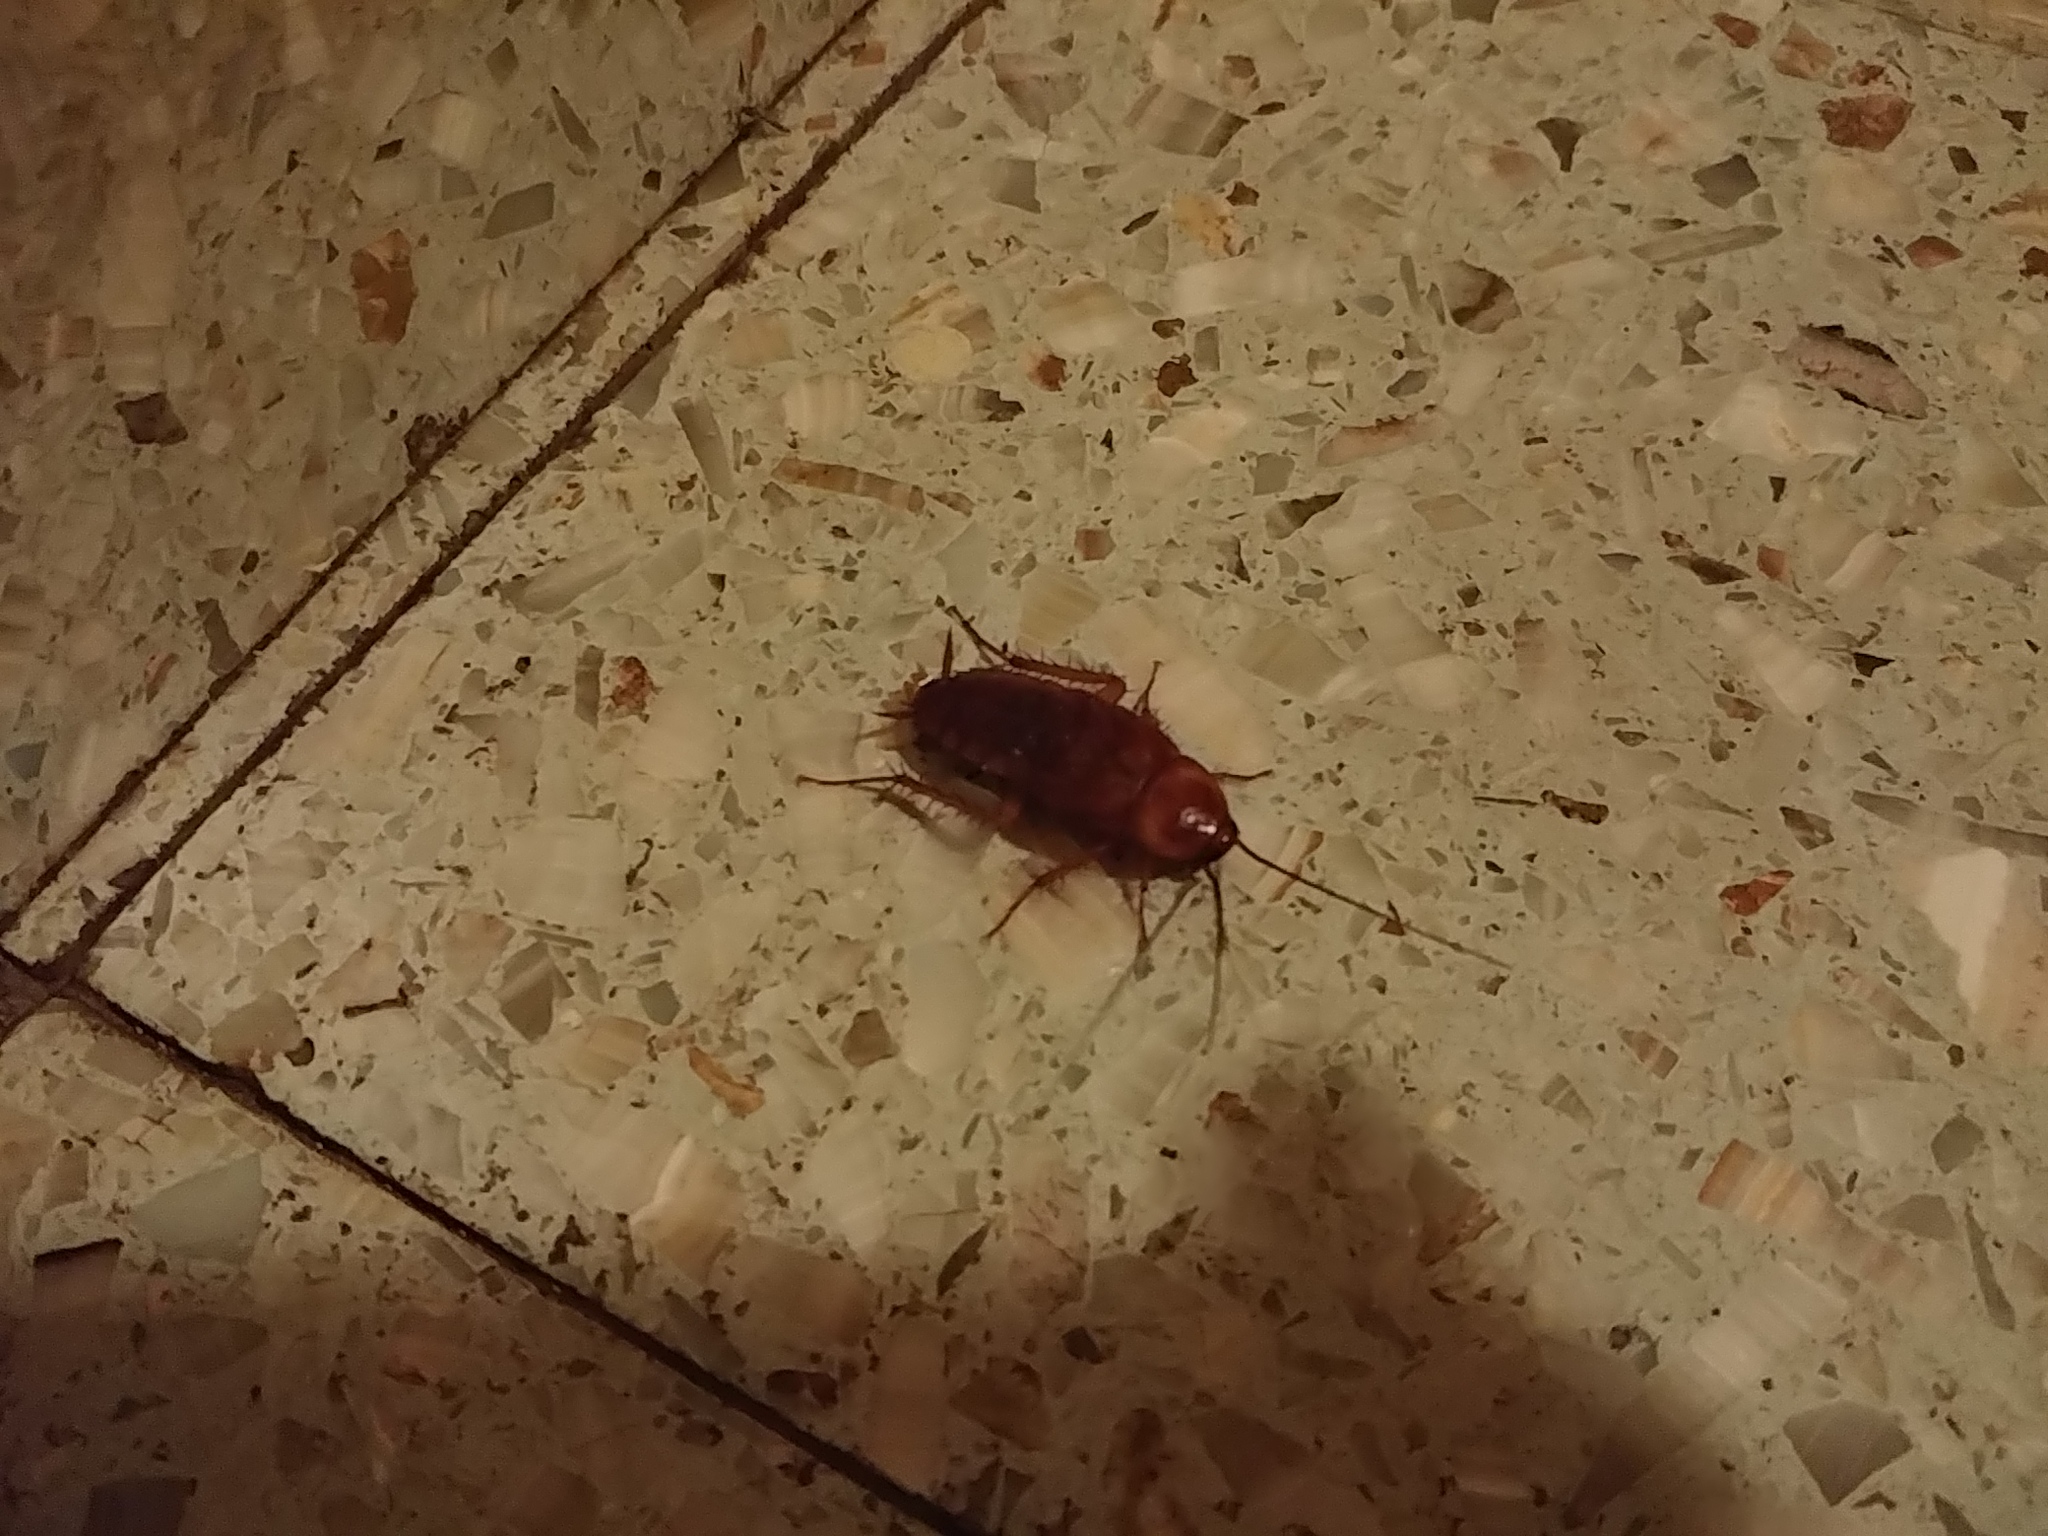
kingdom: Animalia
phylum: Arthropoda
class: Insecta
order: Blattodea
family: Blattidae
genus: Periplaneta
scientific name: Periplaneta americana
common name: American cockroach
